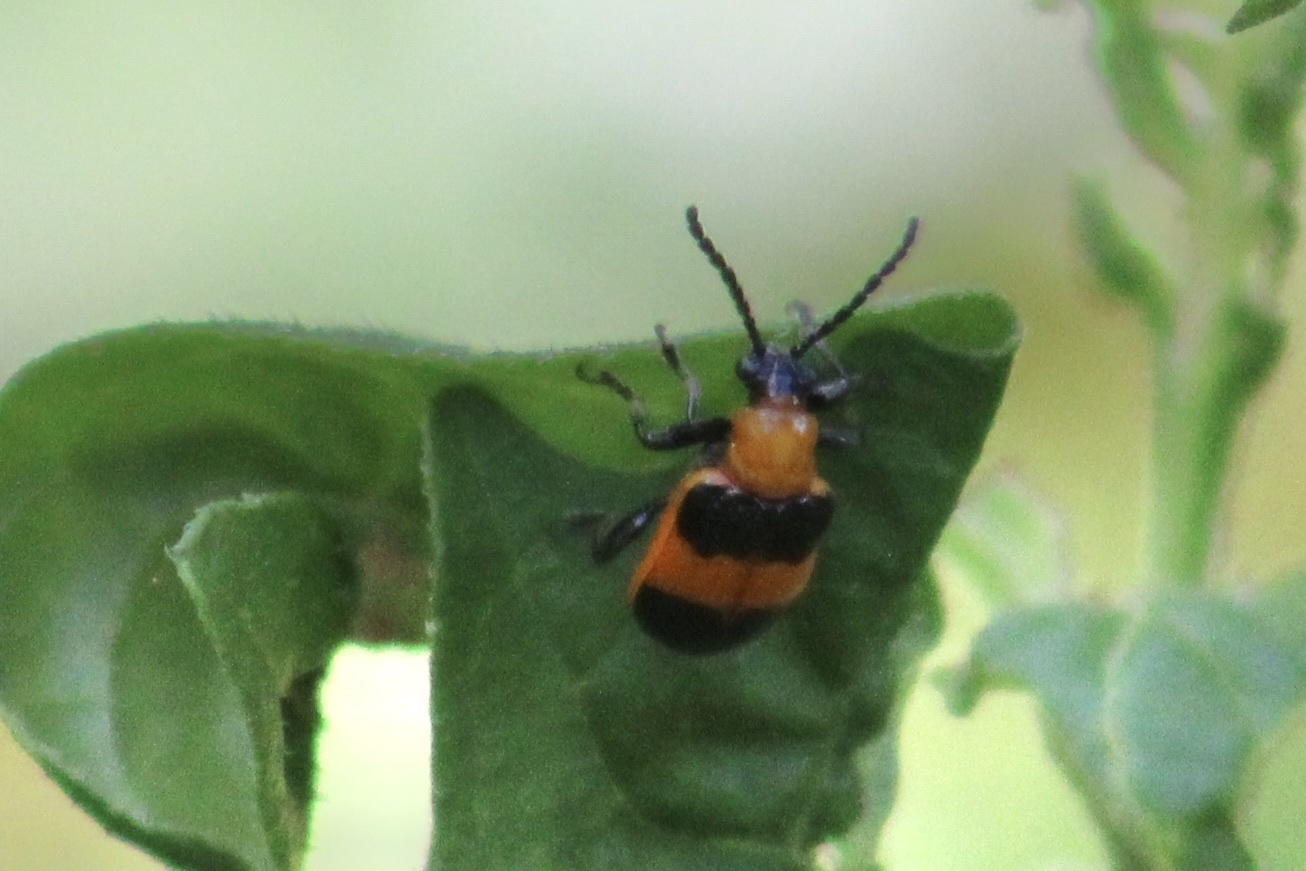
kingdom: Animalia
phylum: Arthropoda
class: Insecta
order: Coleoptera
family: Chrysomelidae
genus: Lema
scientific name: Lema solani
